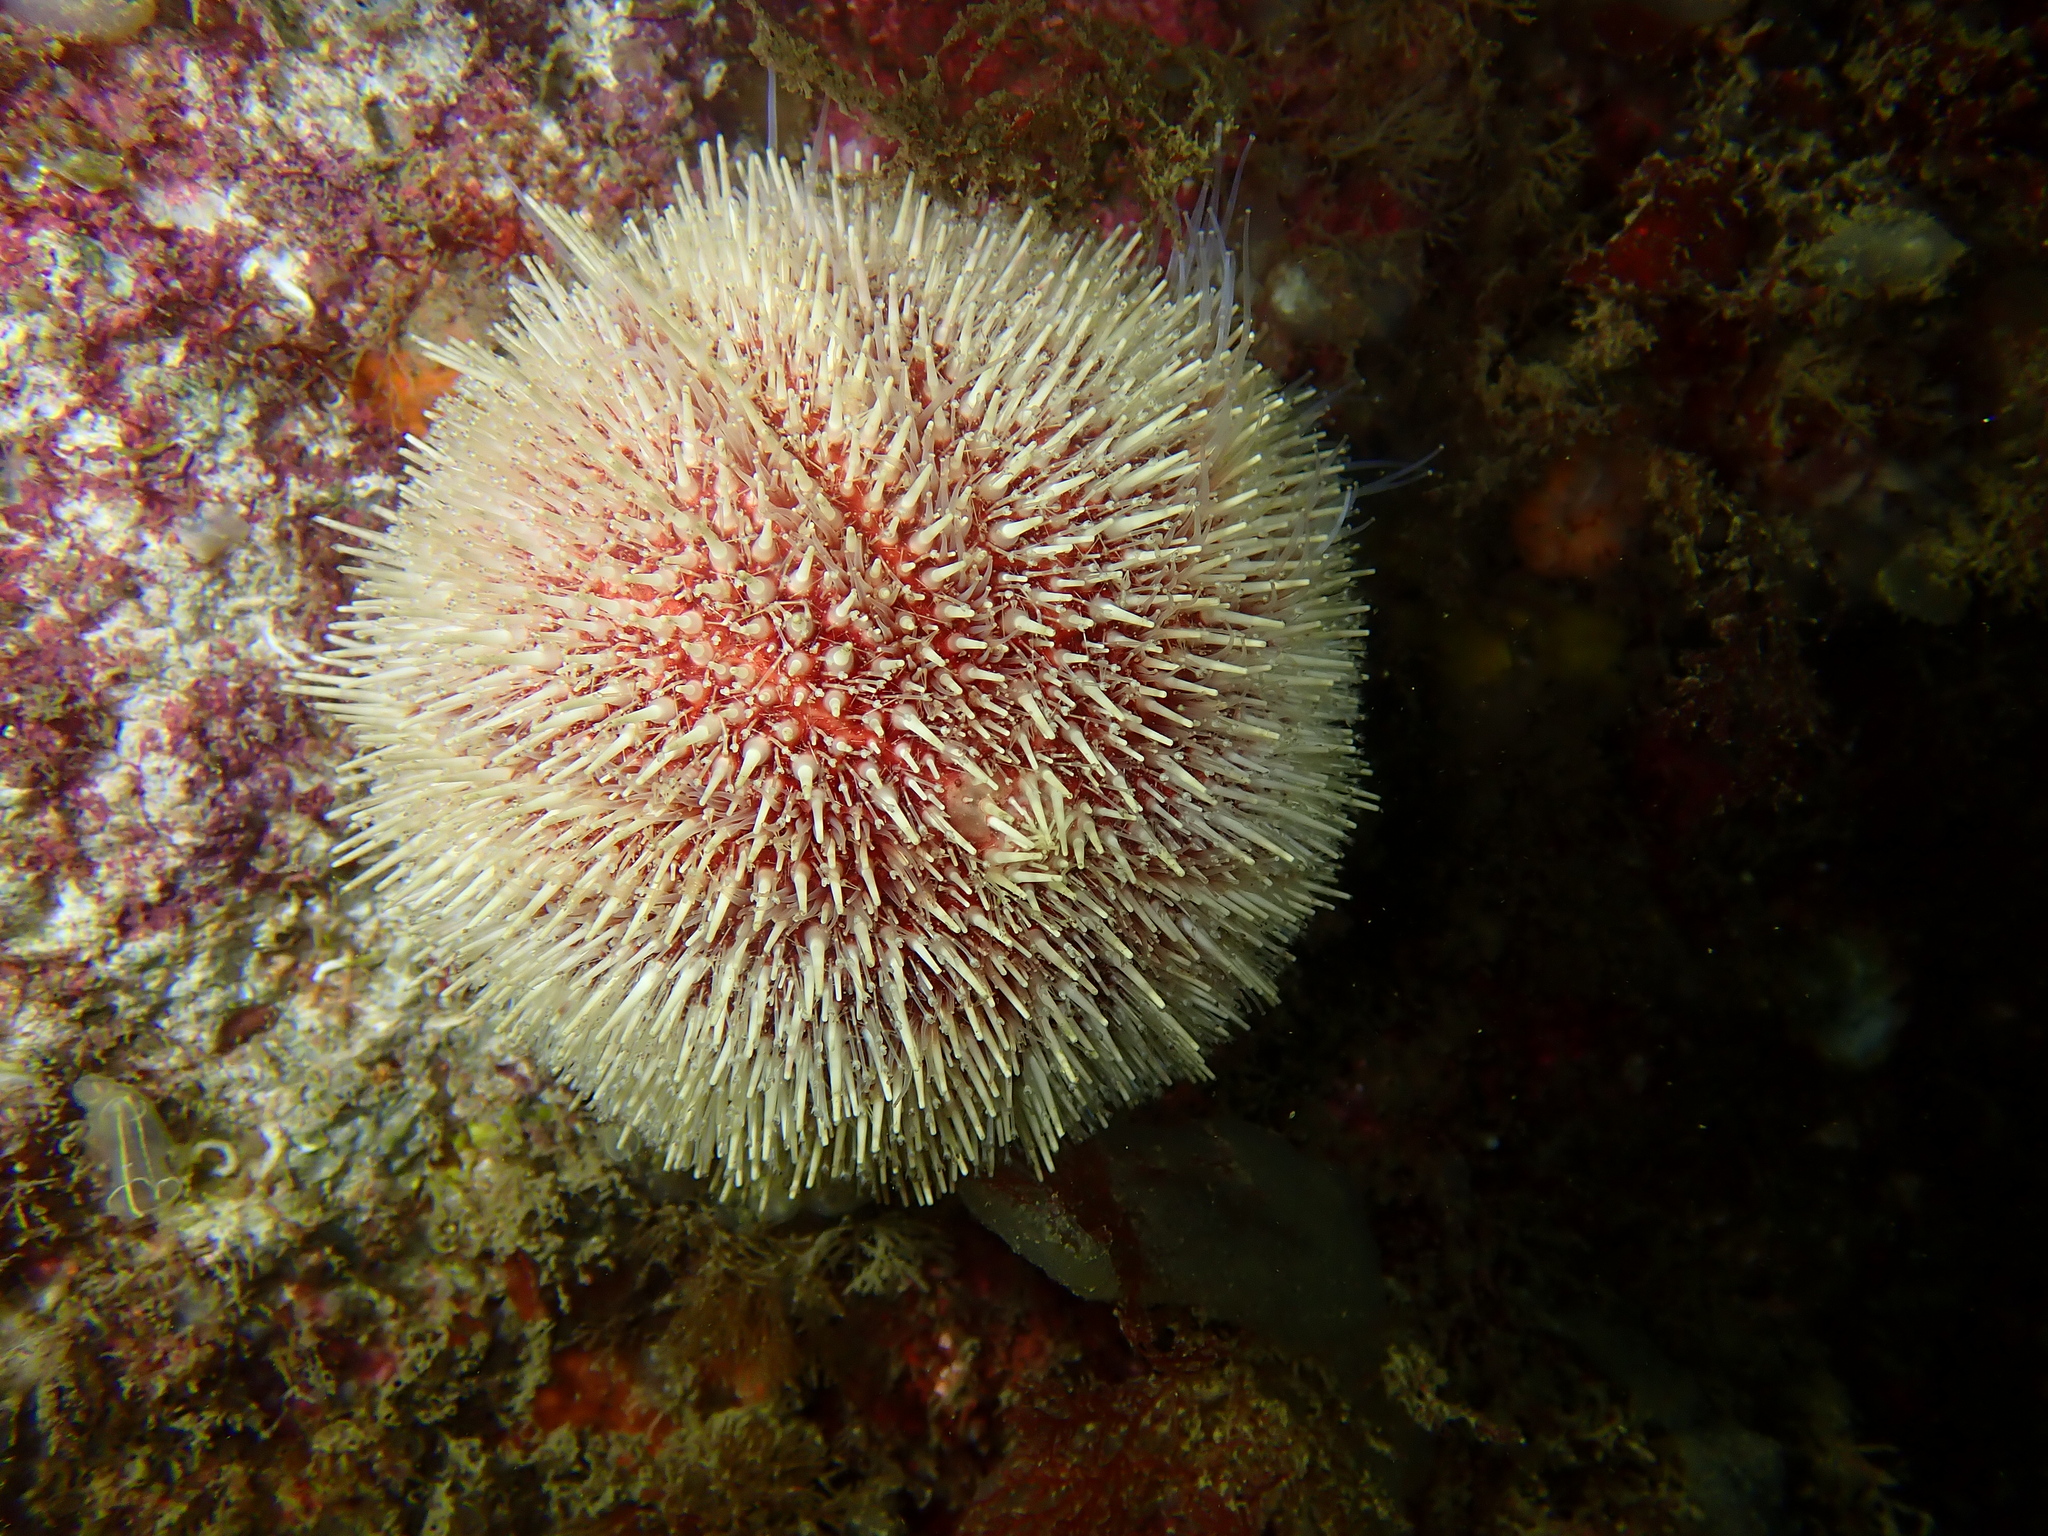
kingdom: Animalia
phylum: Echinodermata
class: Echinoidea
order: Camarodonta
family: Echinidae
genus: Echinus
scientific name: Echinus esculentus
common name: Edible sea urchin
